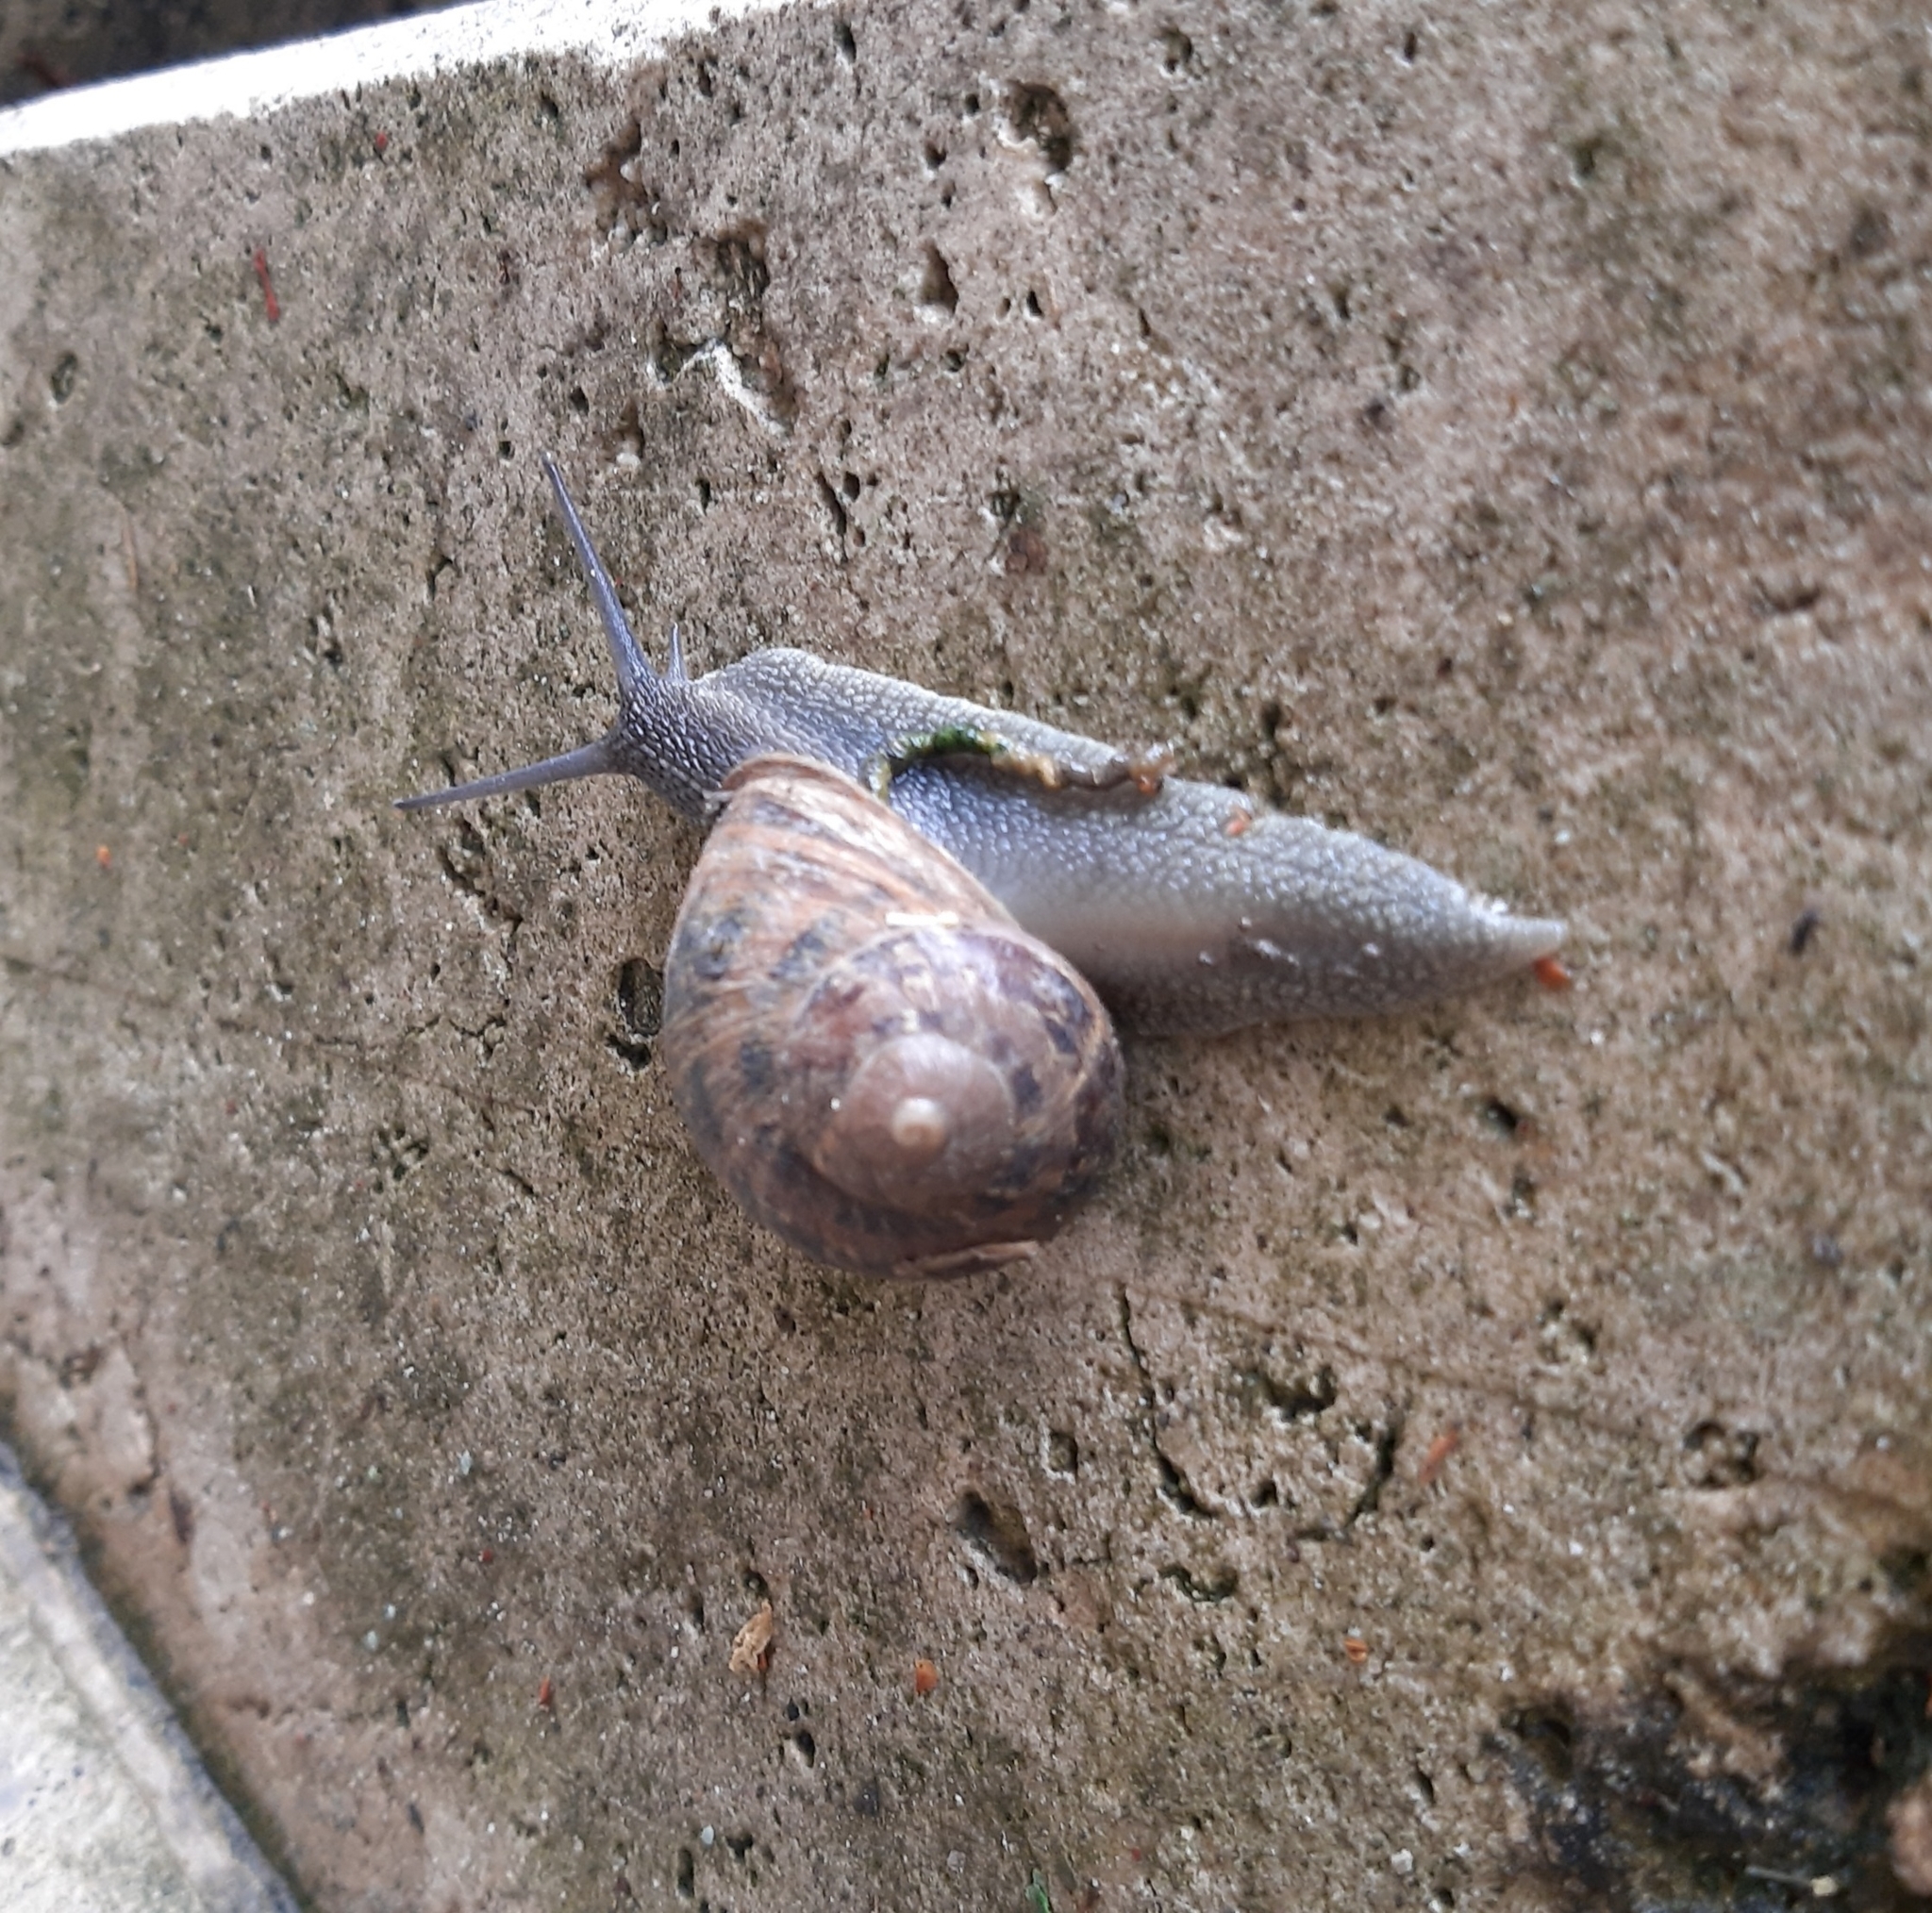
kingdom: Animalia
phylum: Mollusca
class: Gastropoda
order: Stylommatophora
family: Helicidae
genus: Cornu
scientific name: Cornu aspersum
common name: Brown garden snail
